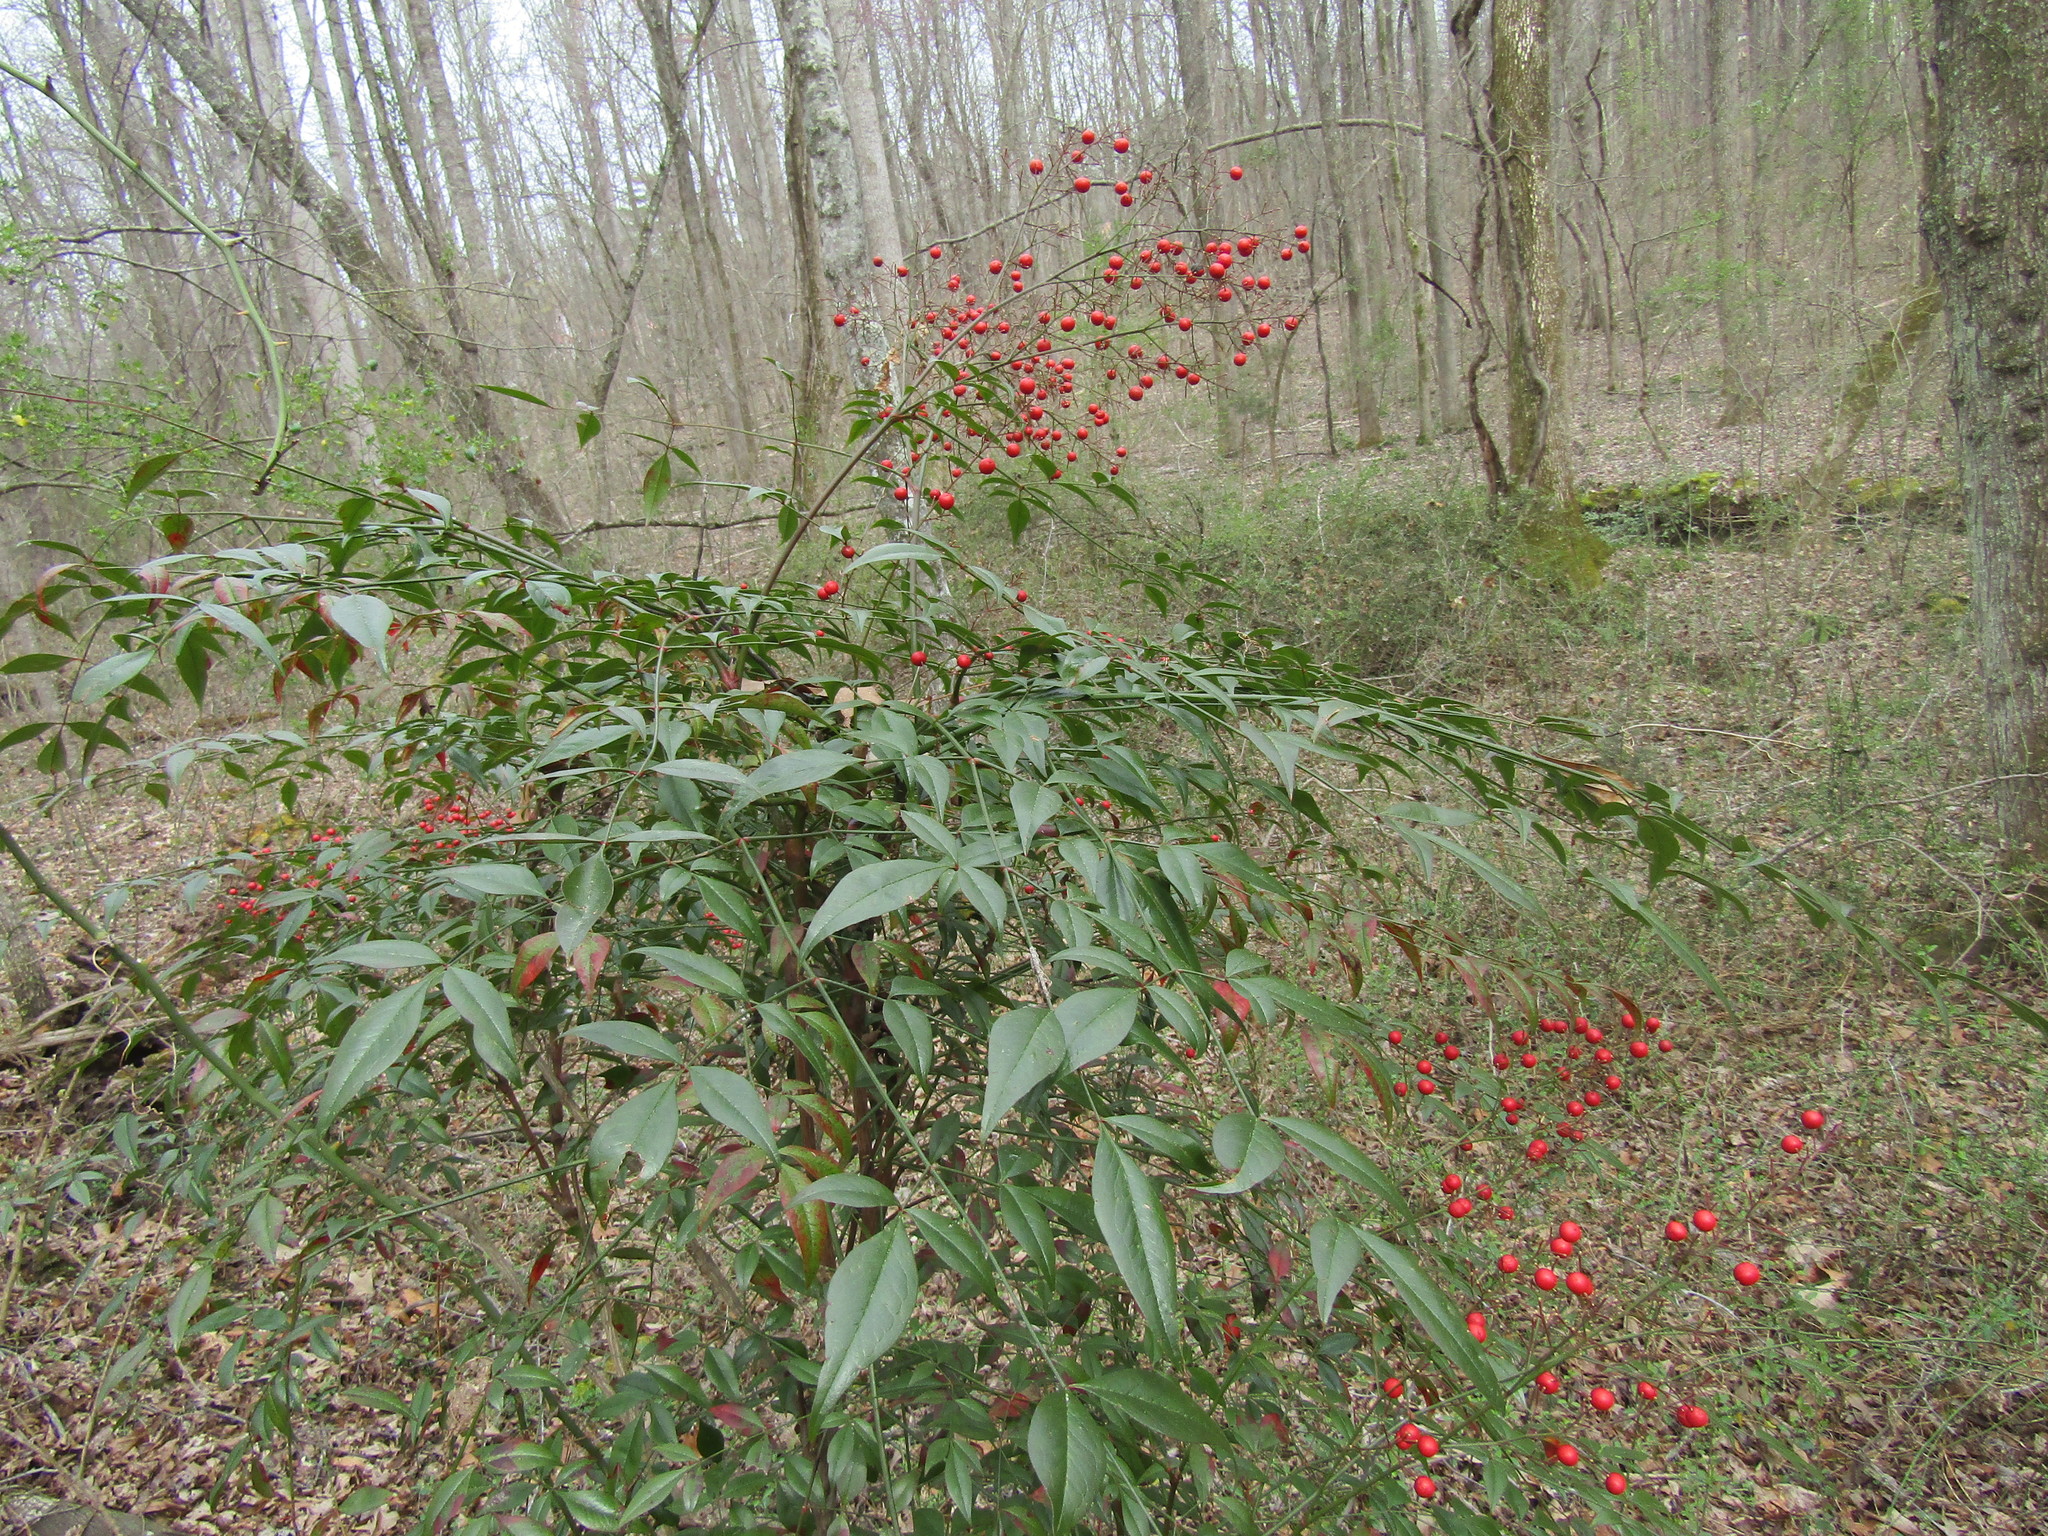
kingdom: Plantae
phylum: Tracheophyta
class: Magnoliopsida
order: Ranunculales
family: Berberidaceae
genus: Nandina
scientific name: Nandina domestica
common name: Sacred bamboo
